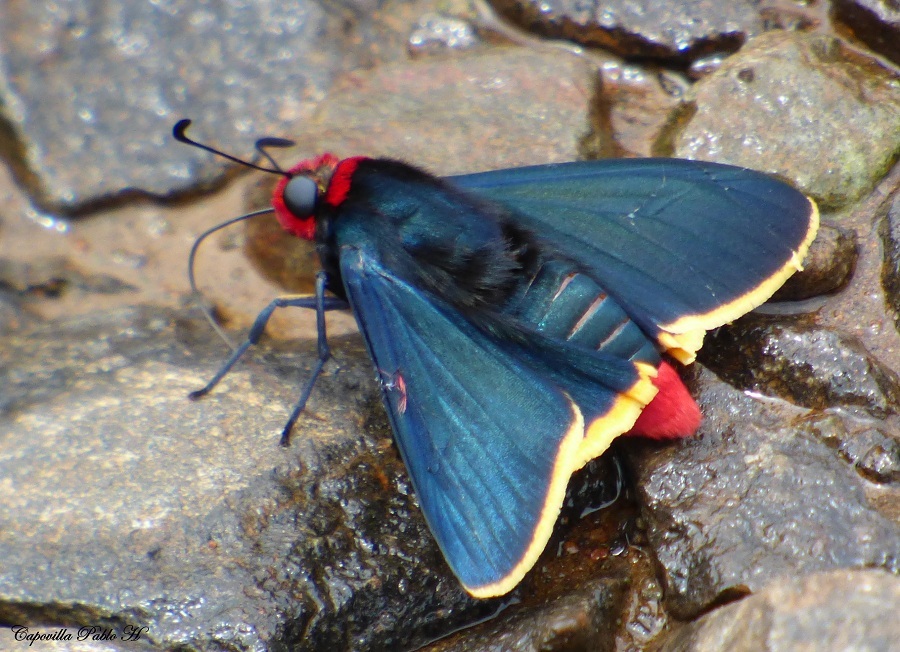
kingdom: Animalia
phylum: Arthropoda
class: Insecta
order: Lepidoptera
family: Hesperiidae
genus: Pyrrhopyge
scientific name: Pyrrhopyge pelota
